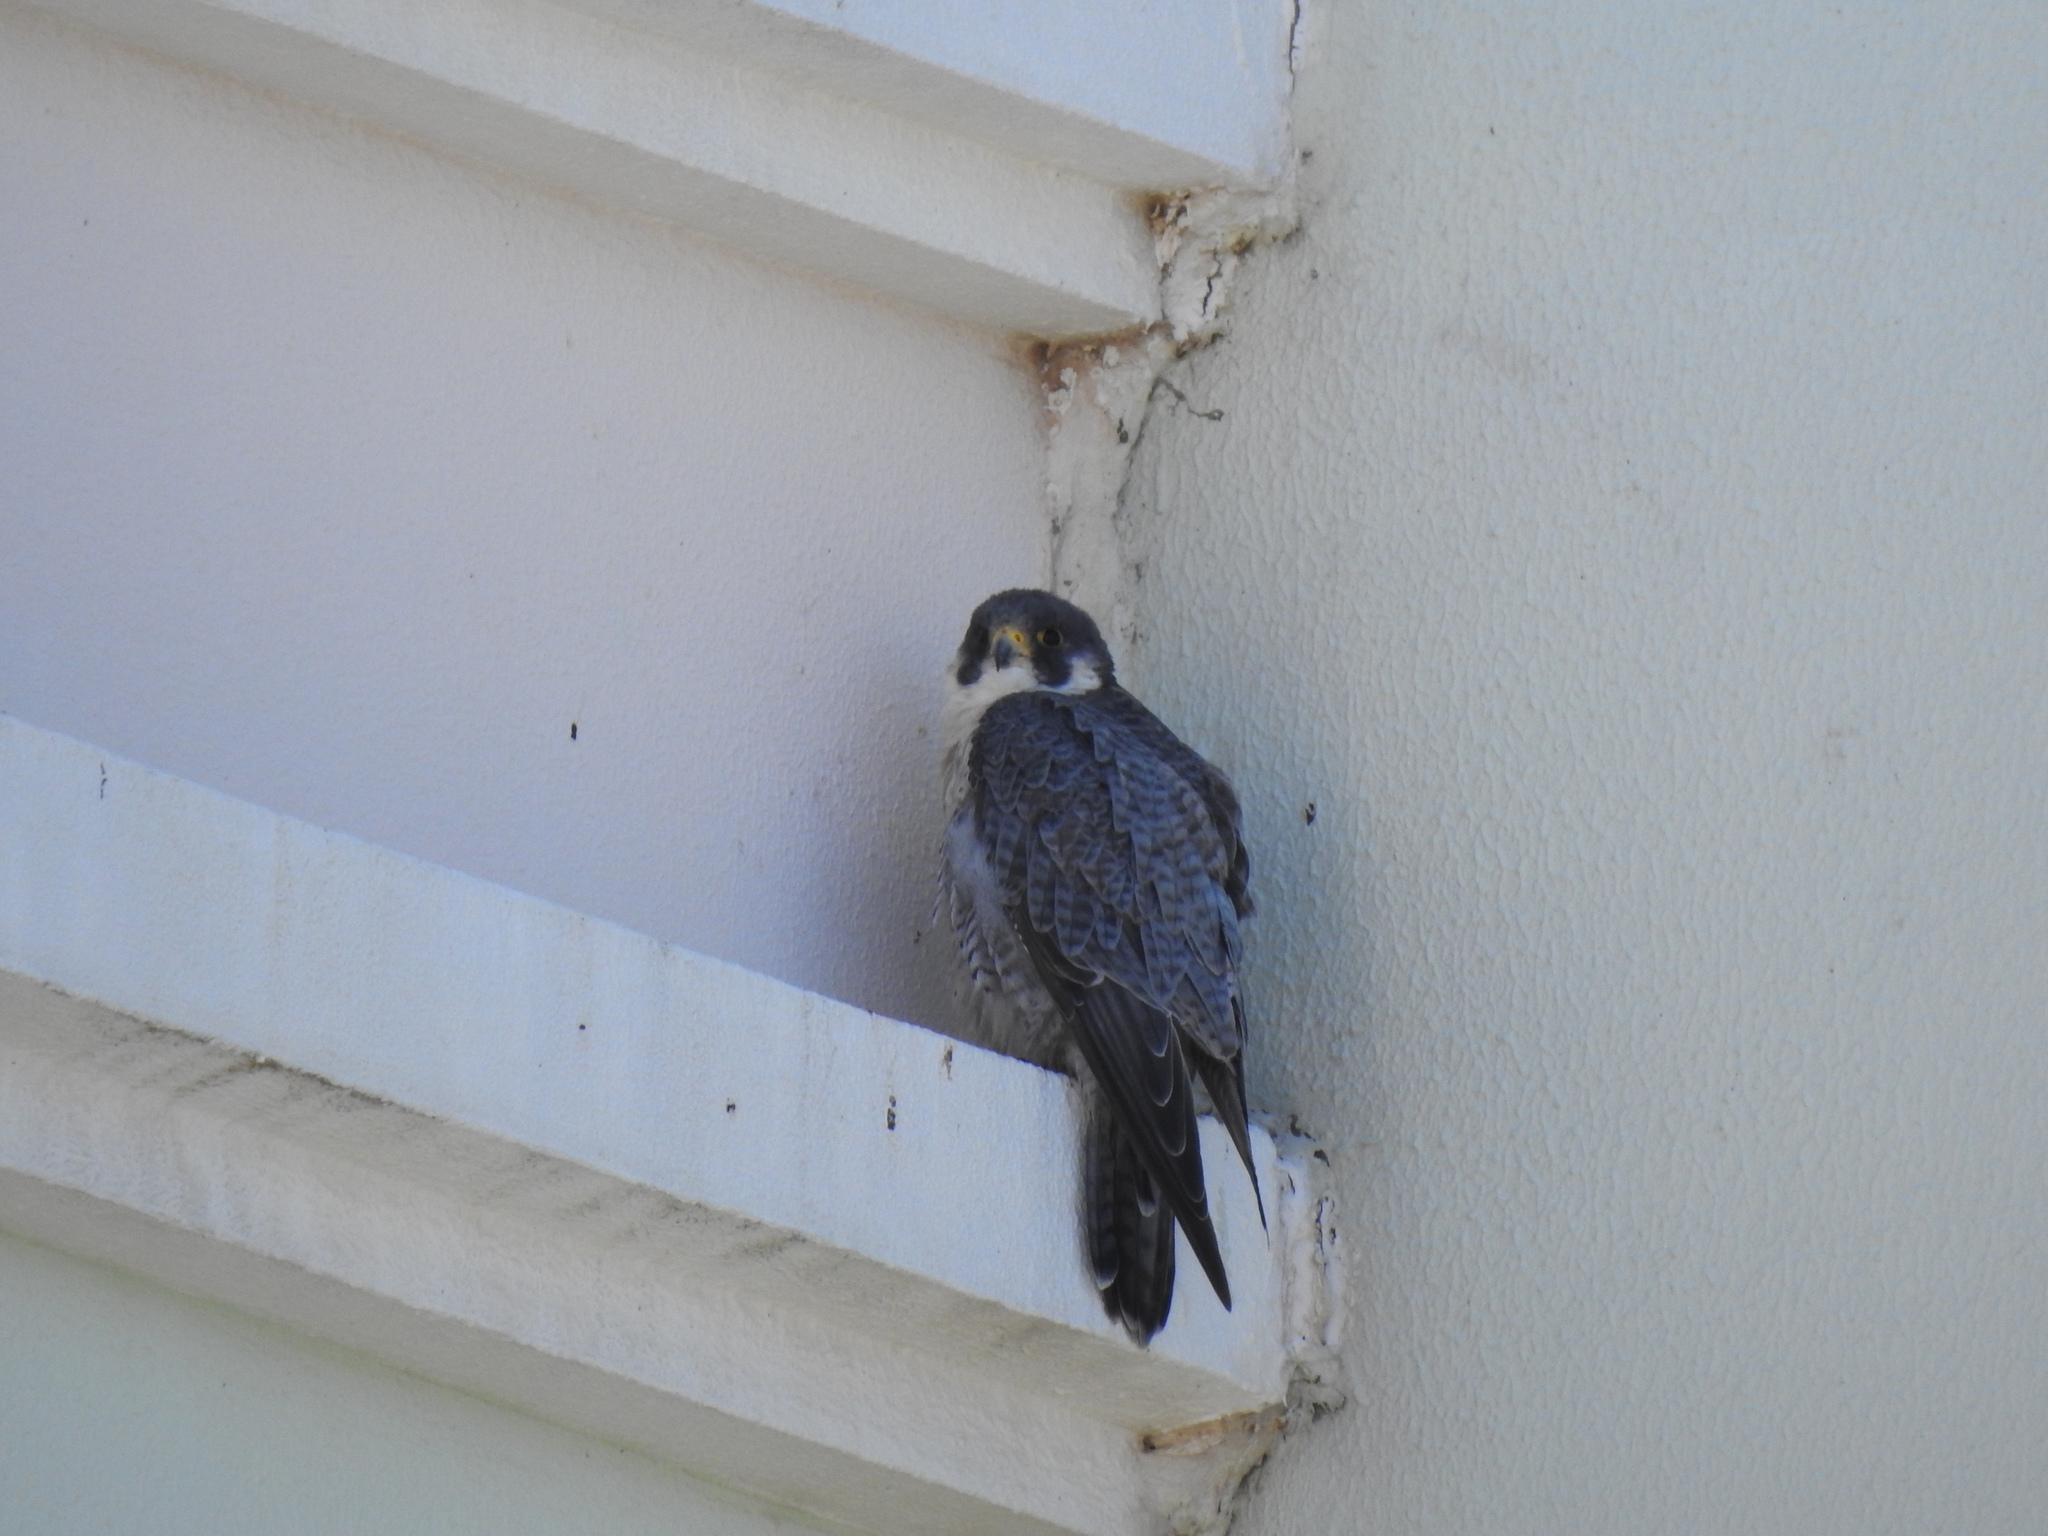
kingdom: Animalia
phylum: Chordata
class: Aves
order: Falconiformes
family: Falconidae
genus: Falco
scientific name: Falco peregrinus
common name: Peregrine falcon
